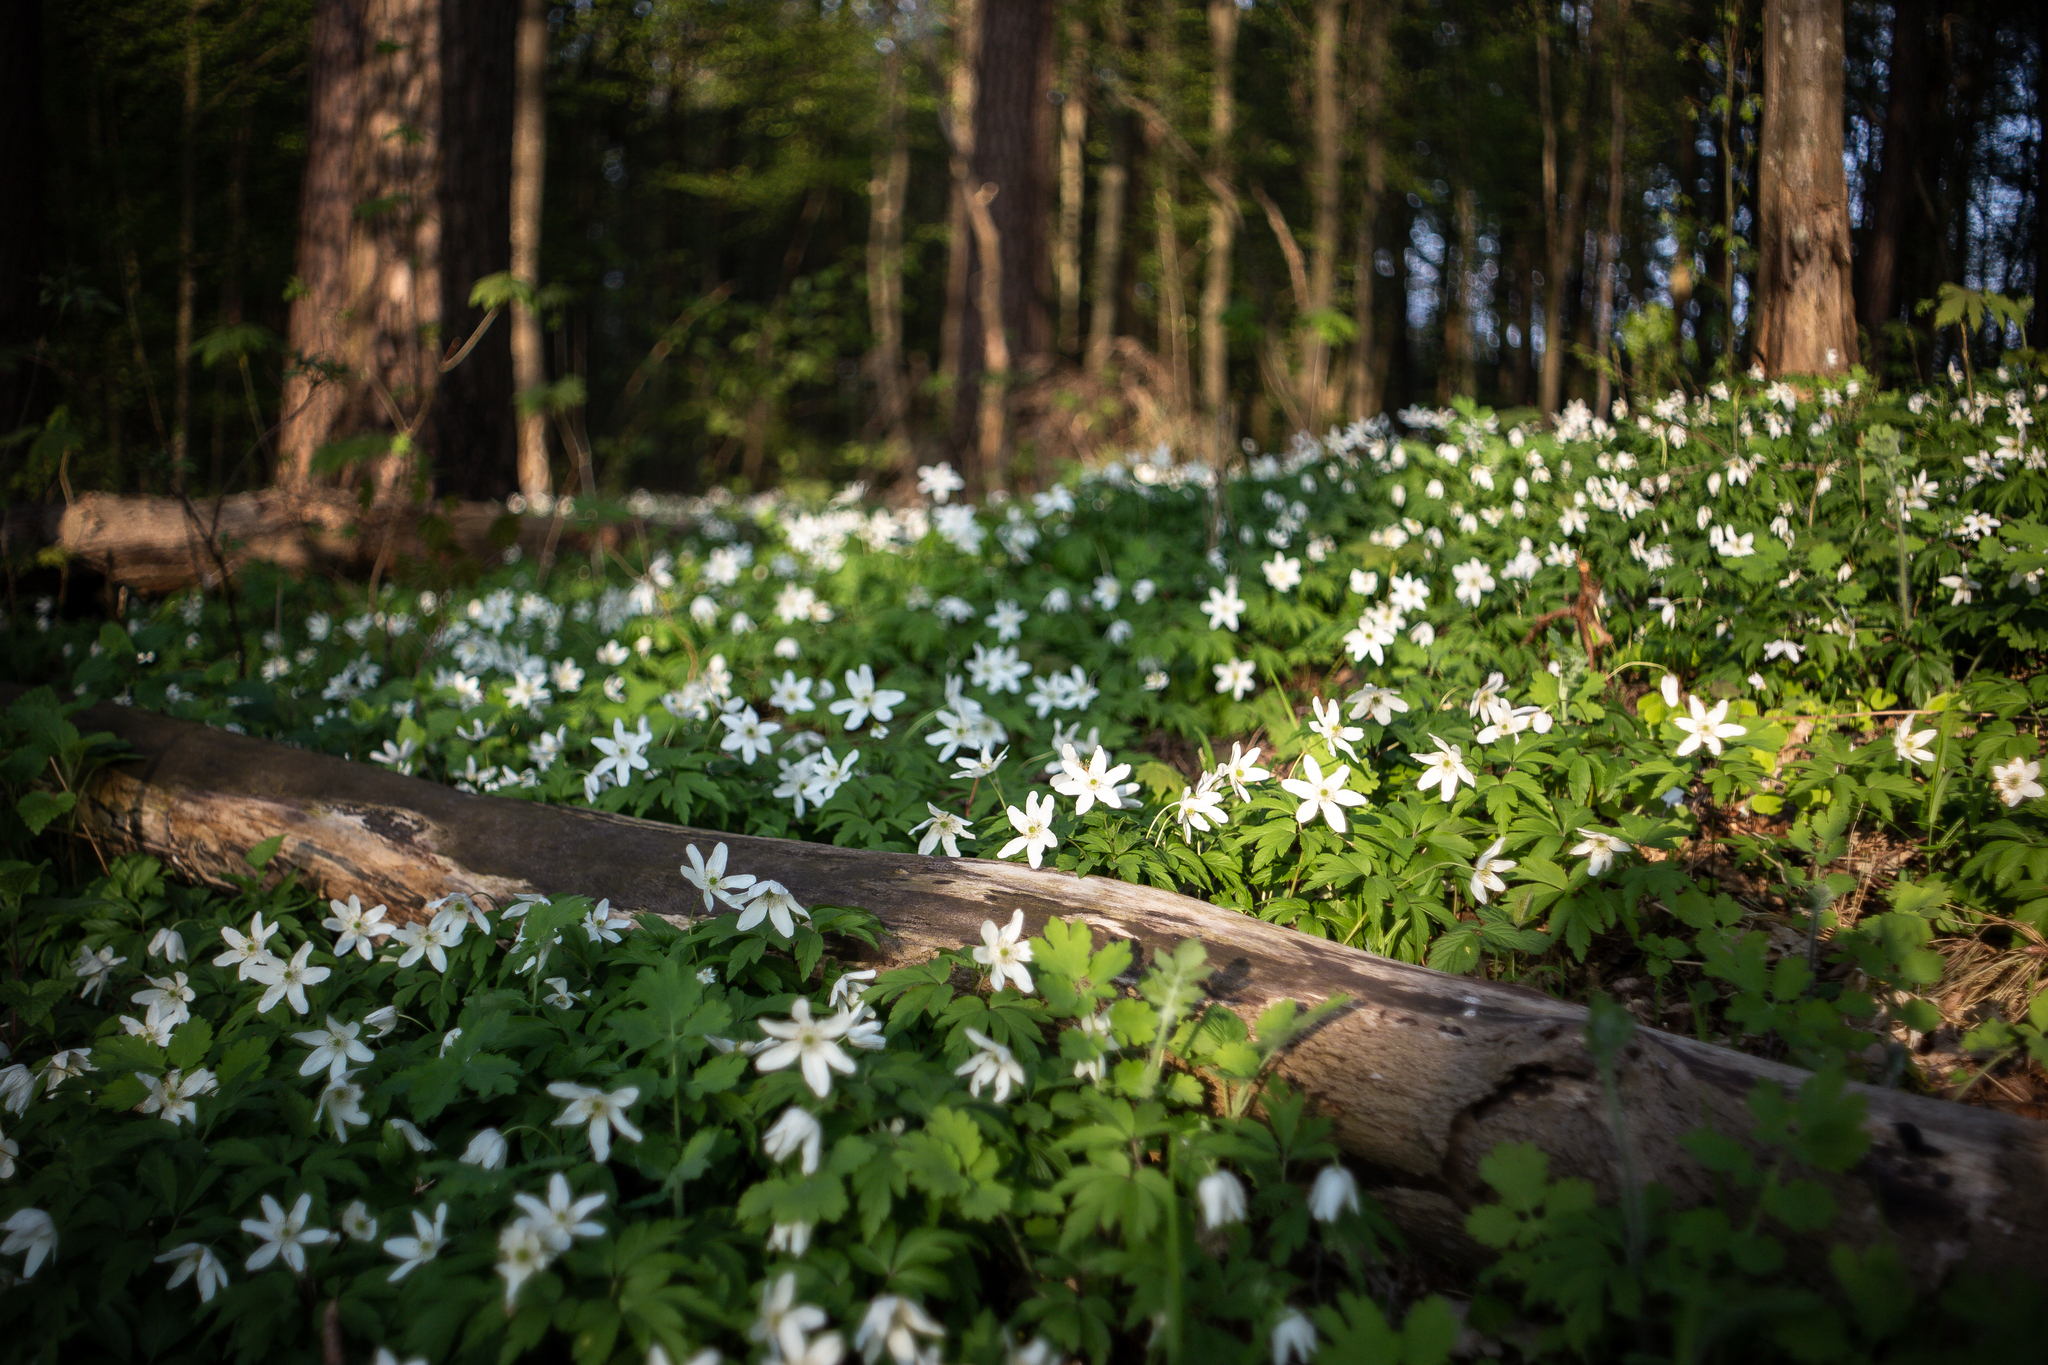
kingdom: Plantae
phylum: Tracheophyta
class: Magnoliopsida
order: Ranunculales
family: Ranunculaceae
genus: Anemone
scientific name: Anemone nemorosa
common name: Wood anemone
